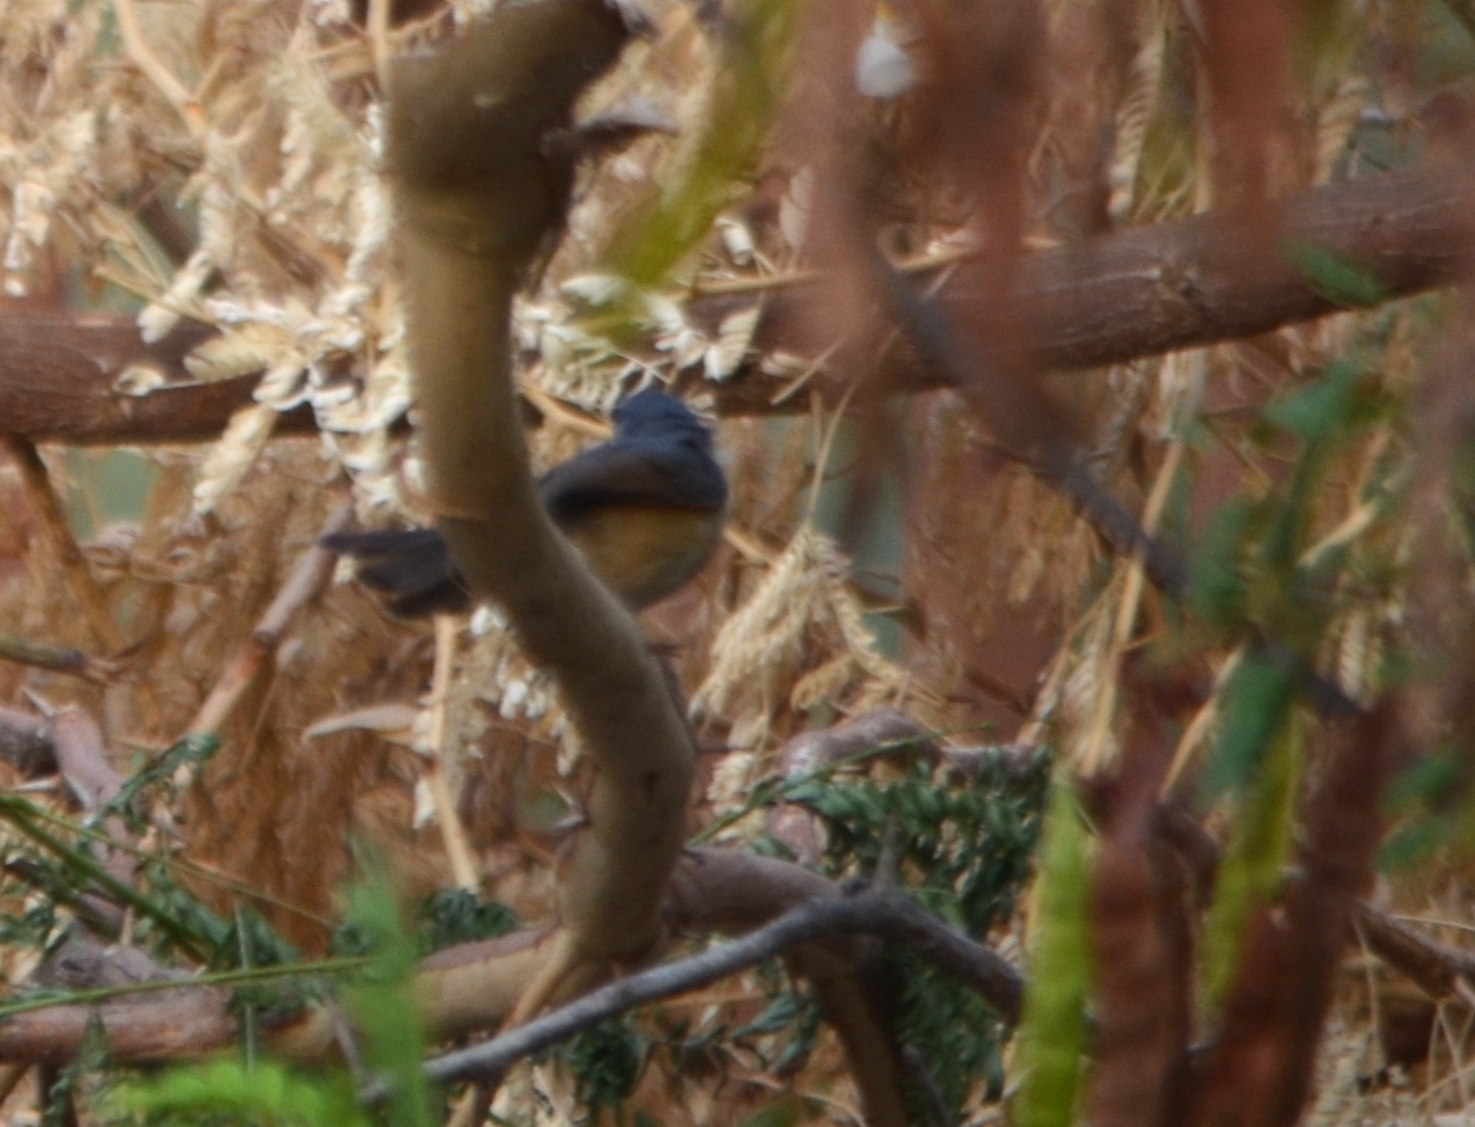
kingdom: Animalia
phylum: Chordata
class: Aves
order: Passeriformes
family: Cisticolidae
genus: Prinia
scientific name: Prinia socialis
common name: Ashy prinia
